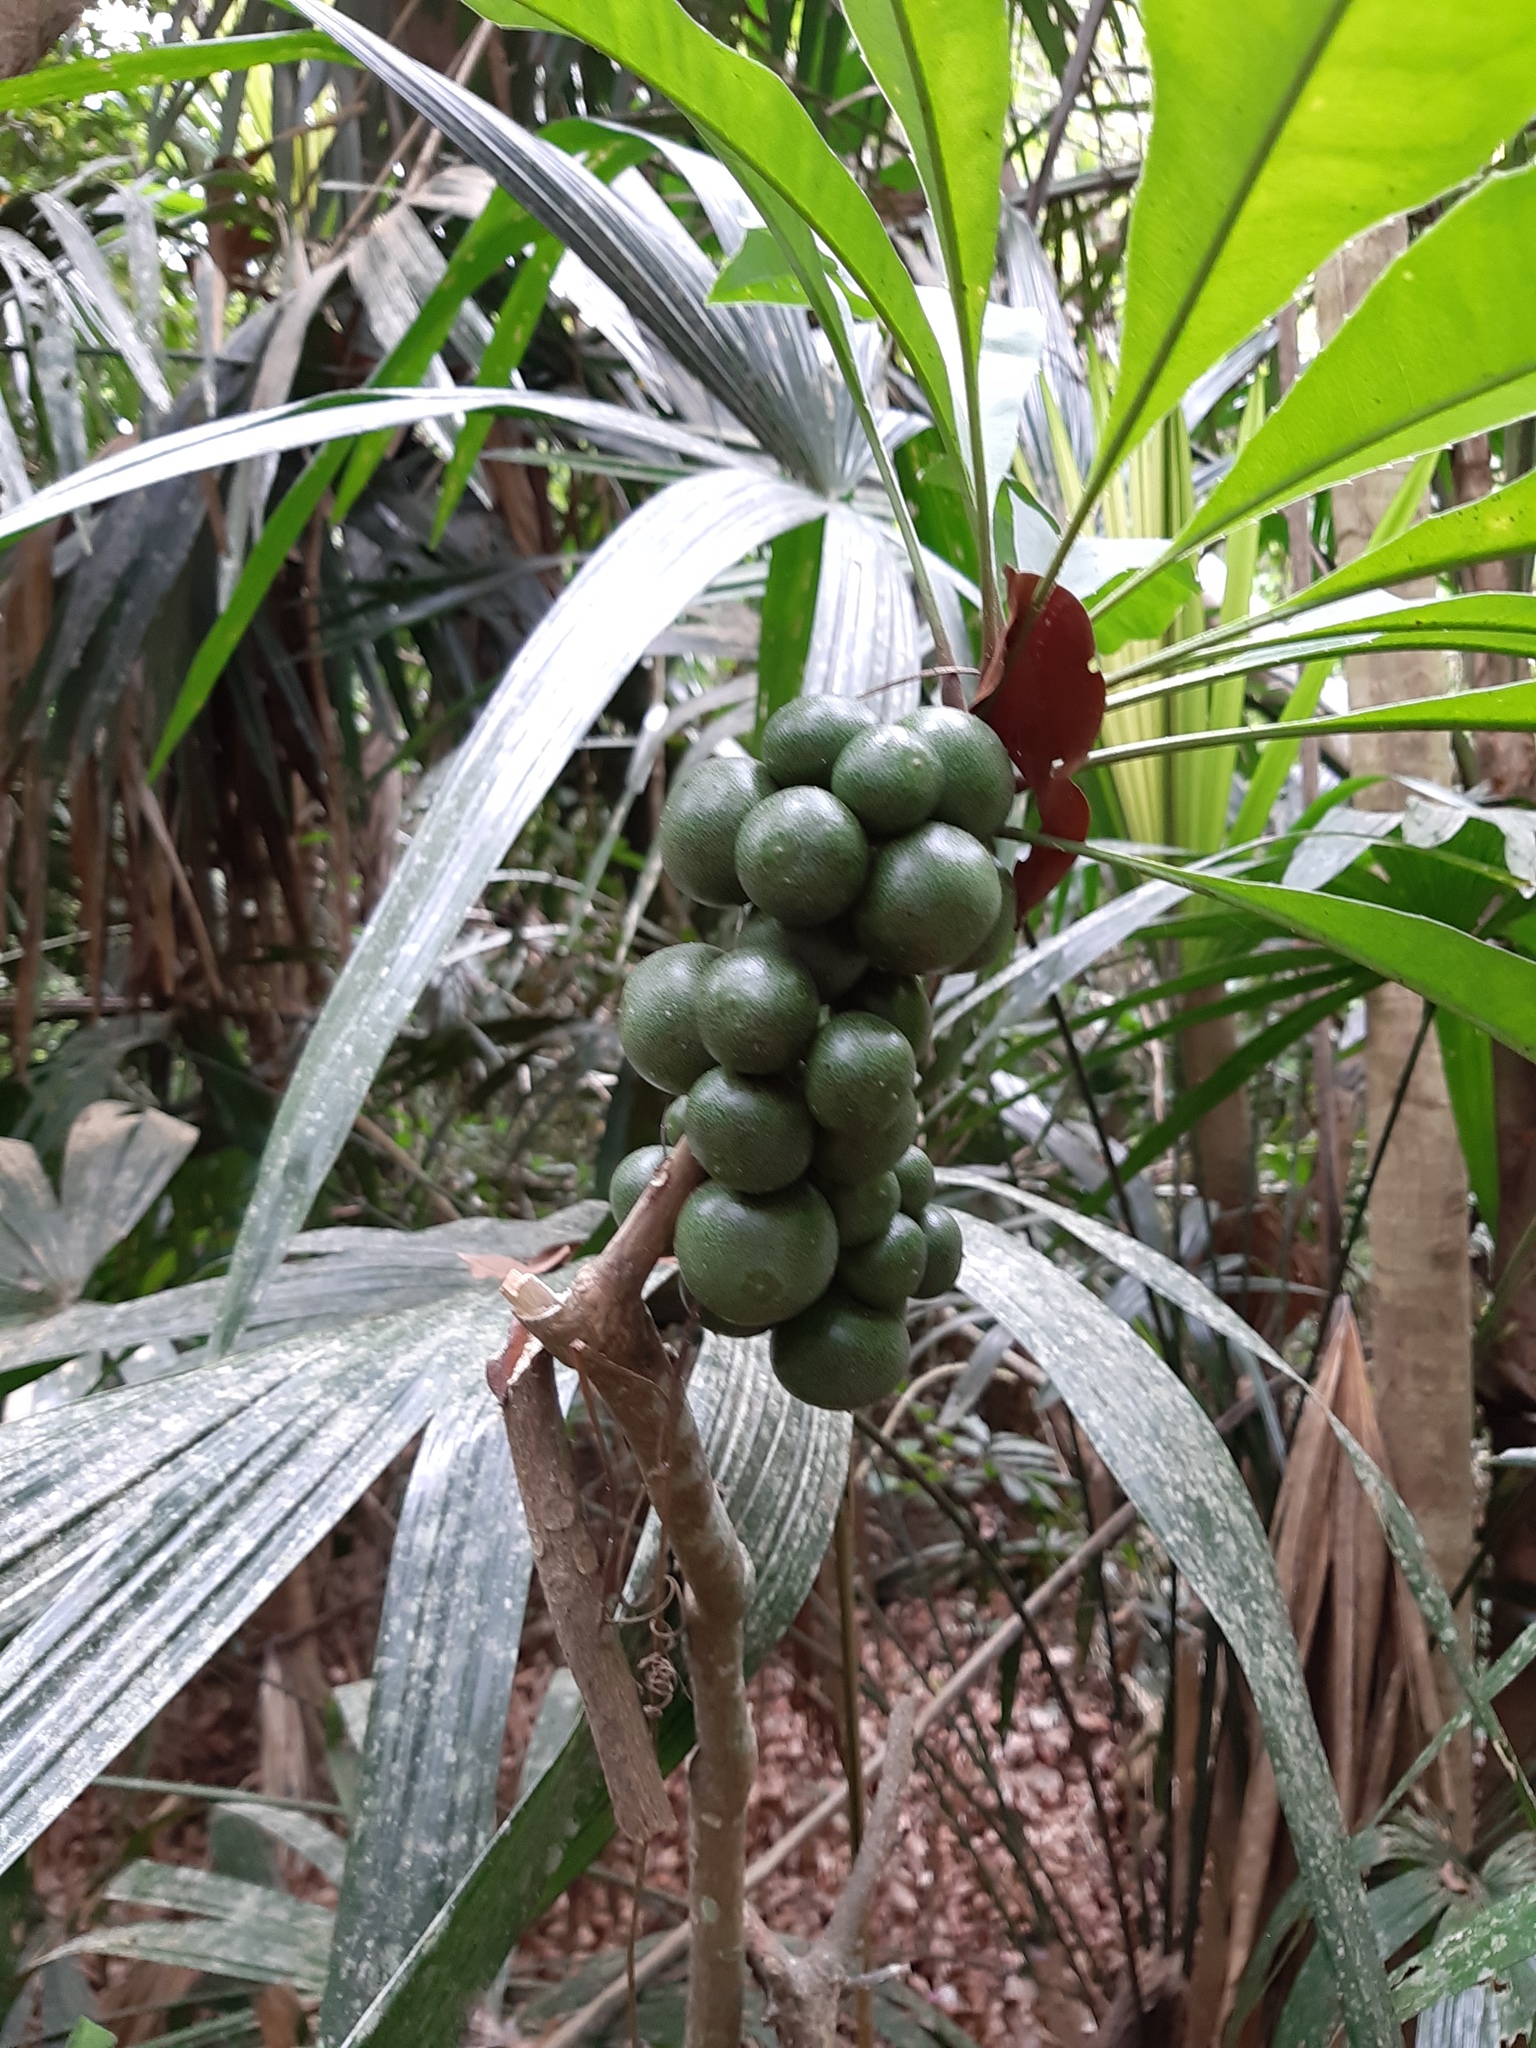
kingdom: Plantae
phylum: Tracheophyta
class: Magnoliopsida
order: Ericales
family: Primulaceae
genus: Clavija
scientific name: Clavija lancifolia
